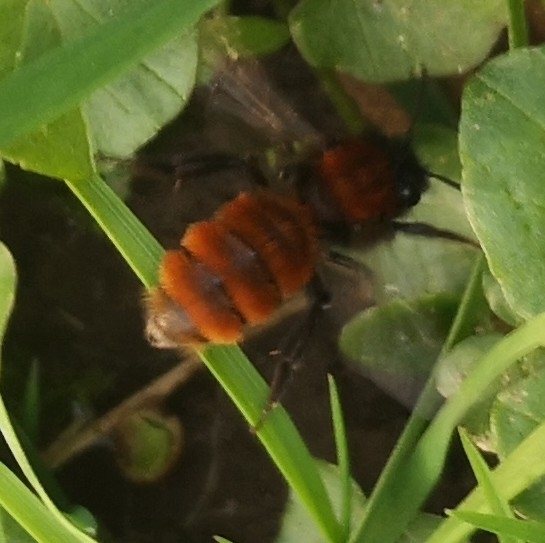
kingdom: Animalia
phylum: Arthropoda
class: Insecta
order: Hymenoptera
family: Andrenidae
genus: Andrena
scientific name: Andrena fulva
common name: Tawny mining bee
